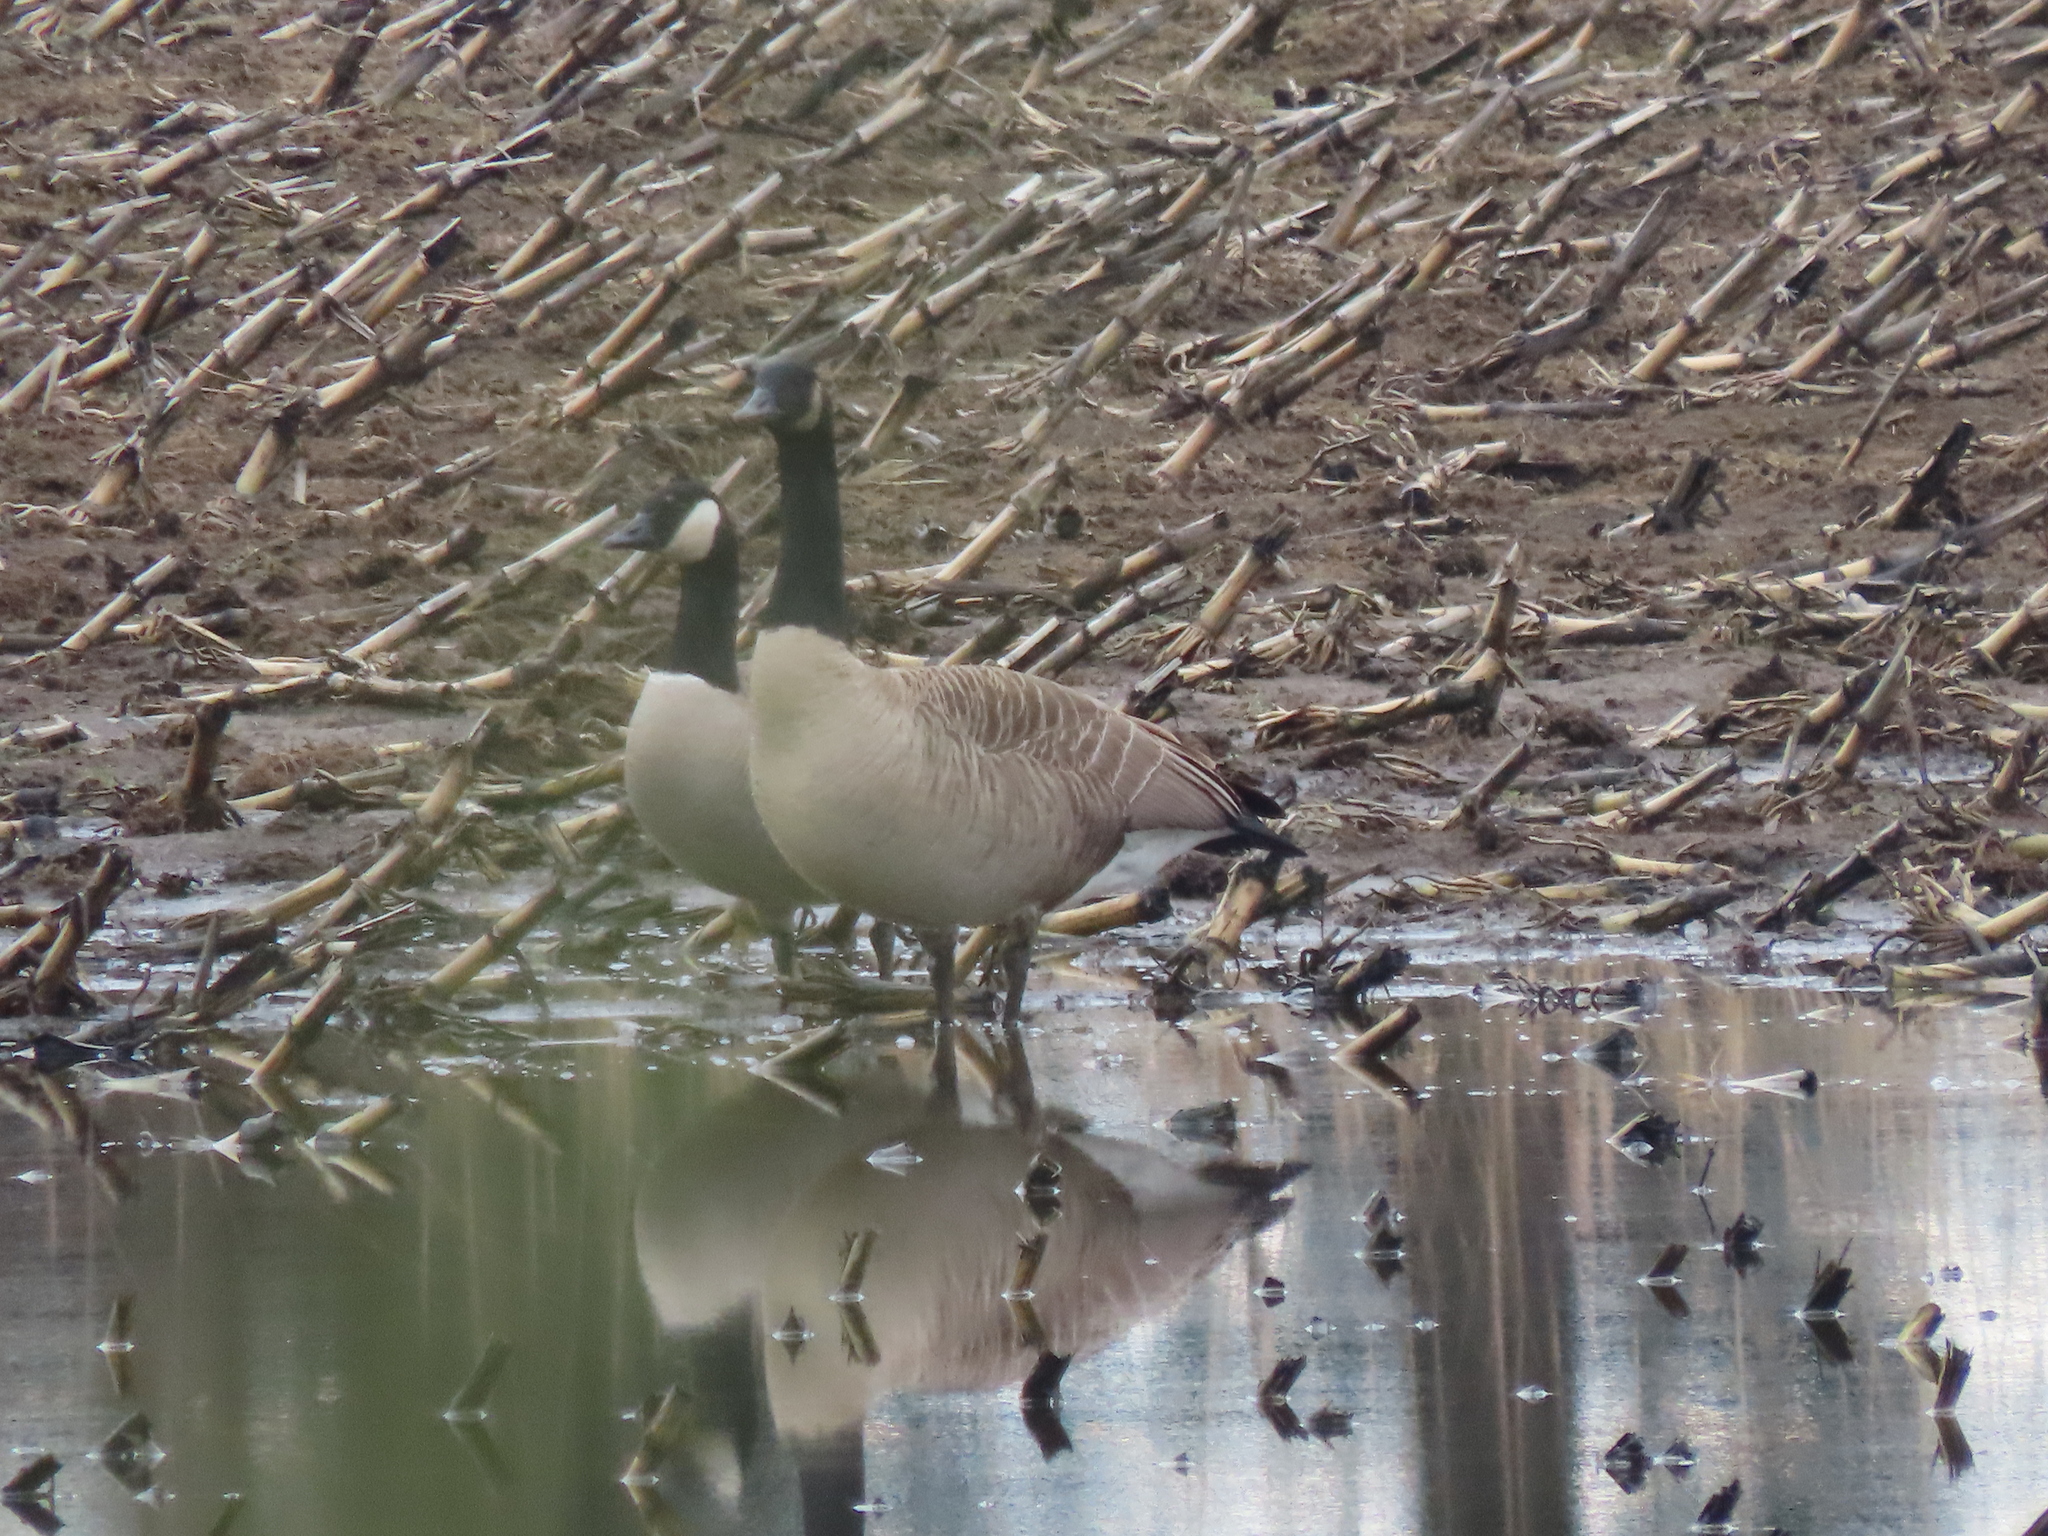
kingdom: Animalia
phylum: Chordata
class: Aves
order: Anseriformes
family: Anatidae
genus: Branta
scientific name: Branta canadensis
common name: Canada goose
